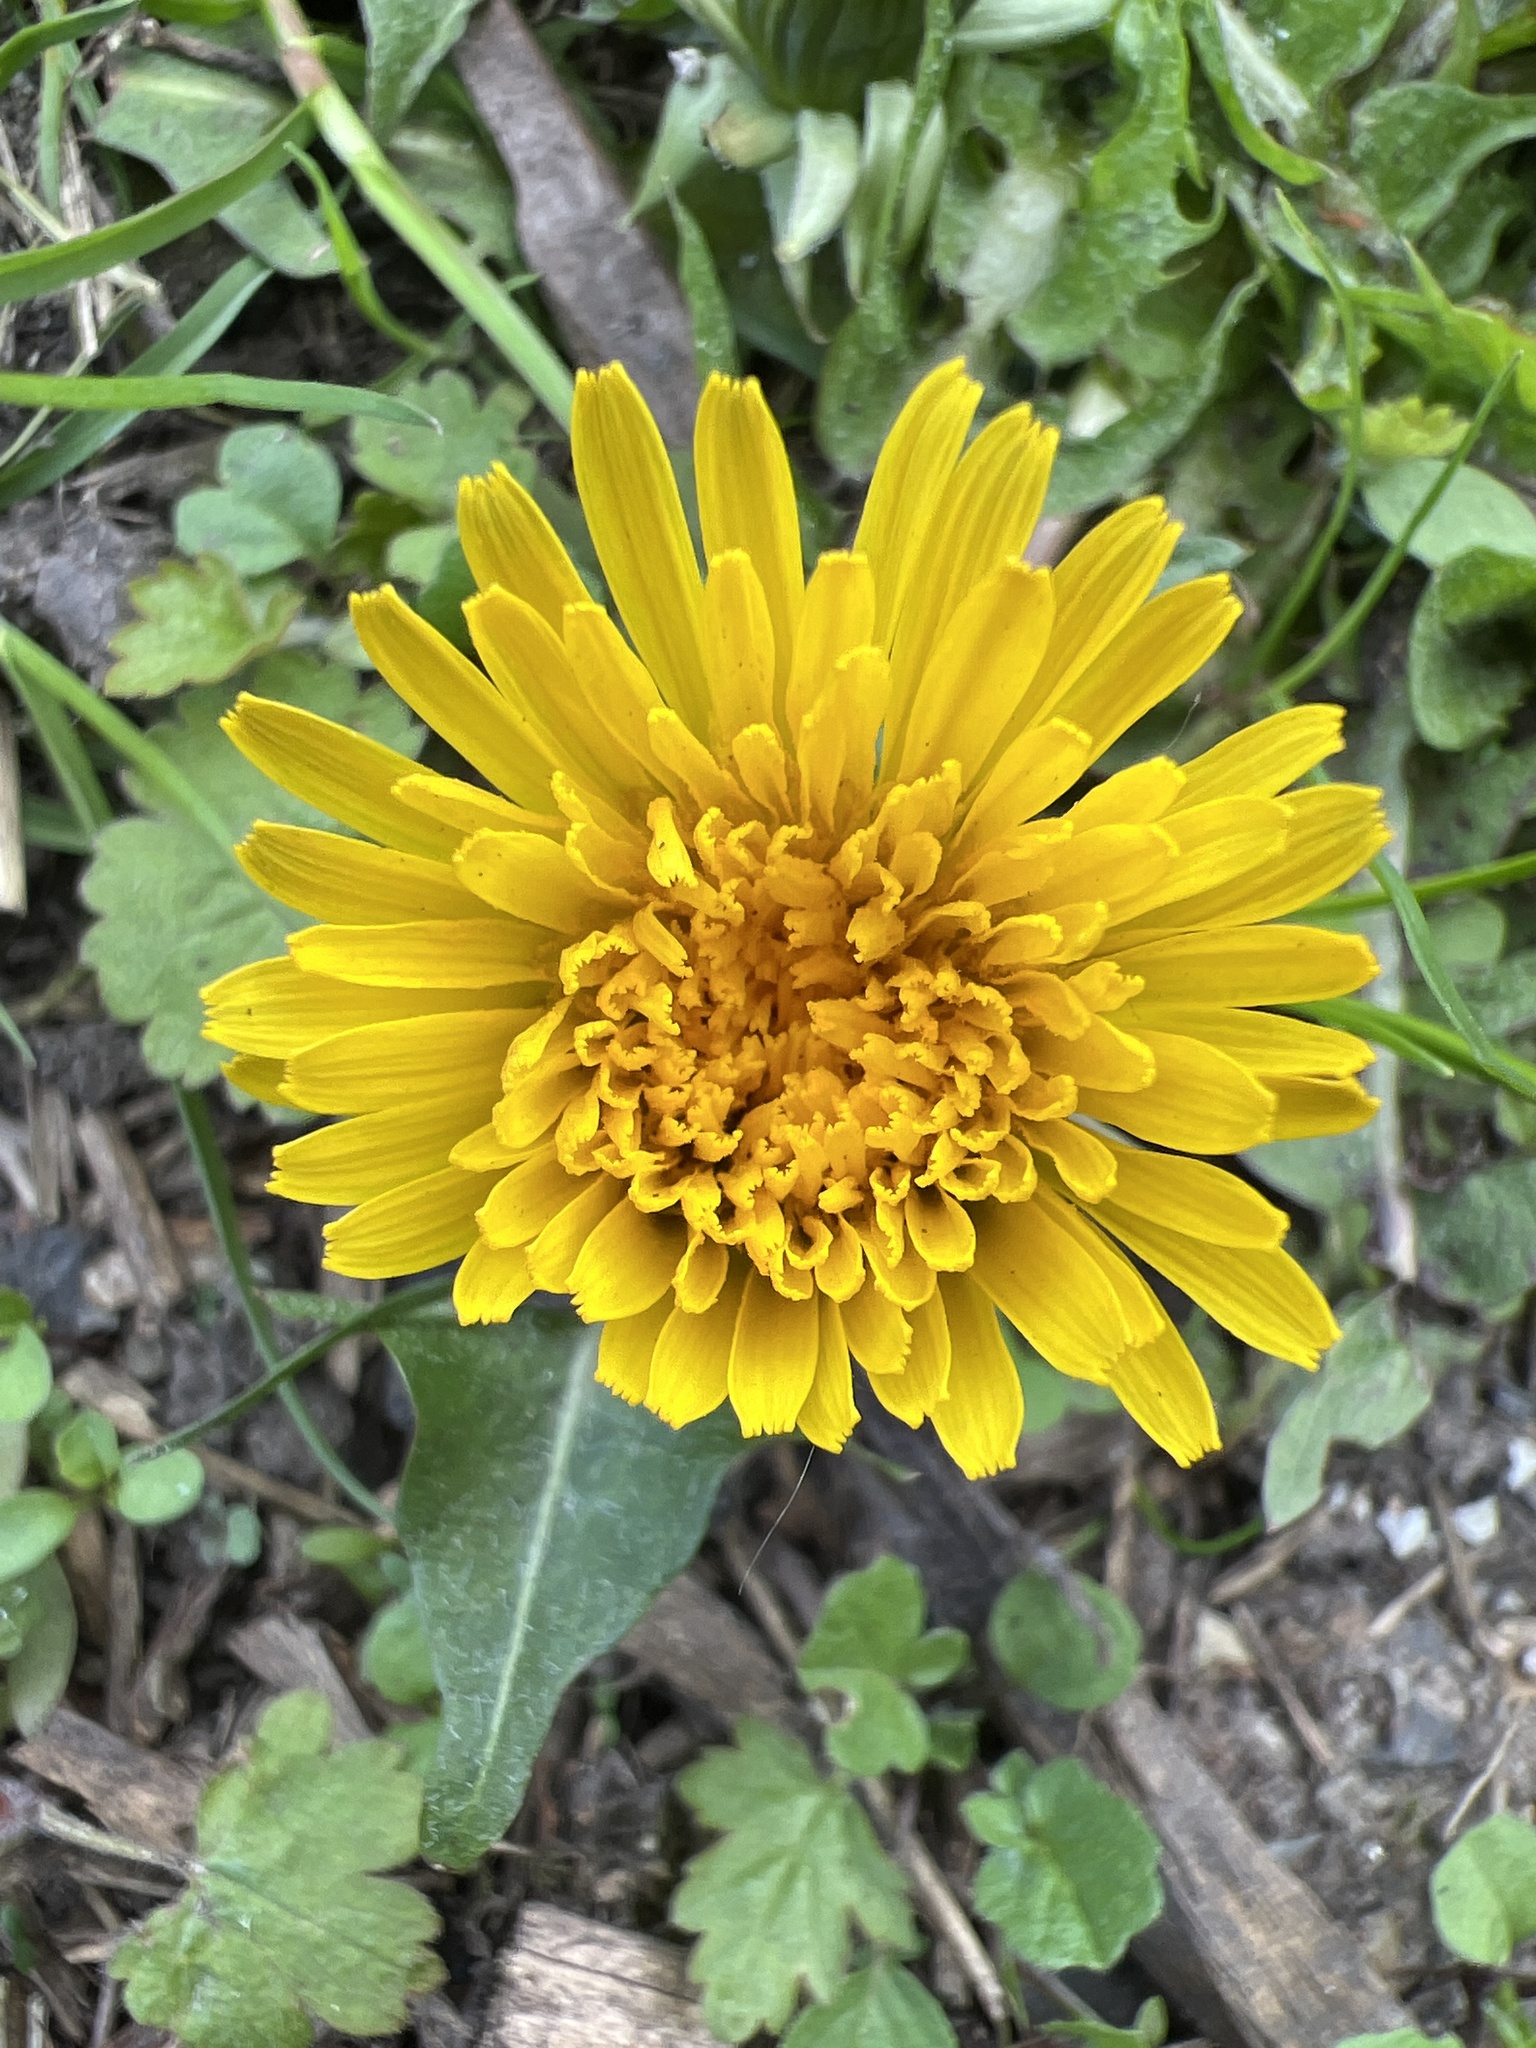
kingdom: Plantae
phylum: Tracheophyta
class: Magnoliopsida
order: Asterales
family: Asteraceae
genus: Taraxacum
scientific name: Taraxacum officinale
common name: Common dandelion
